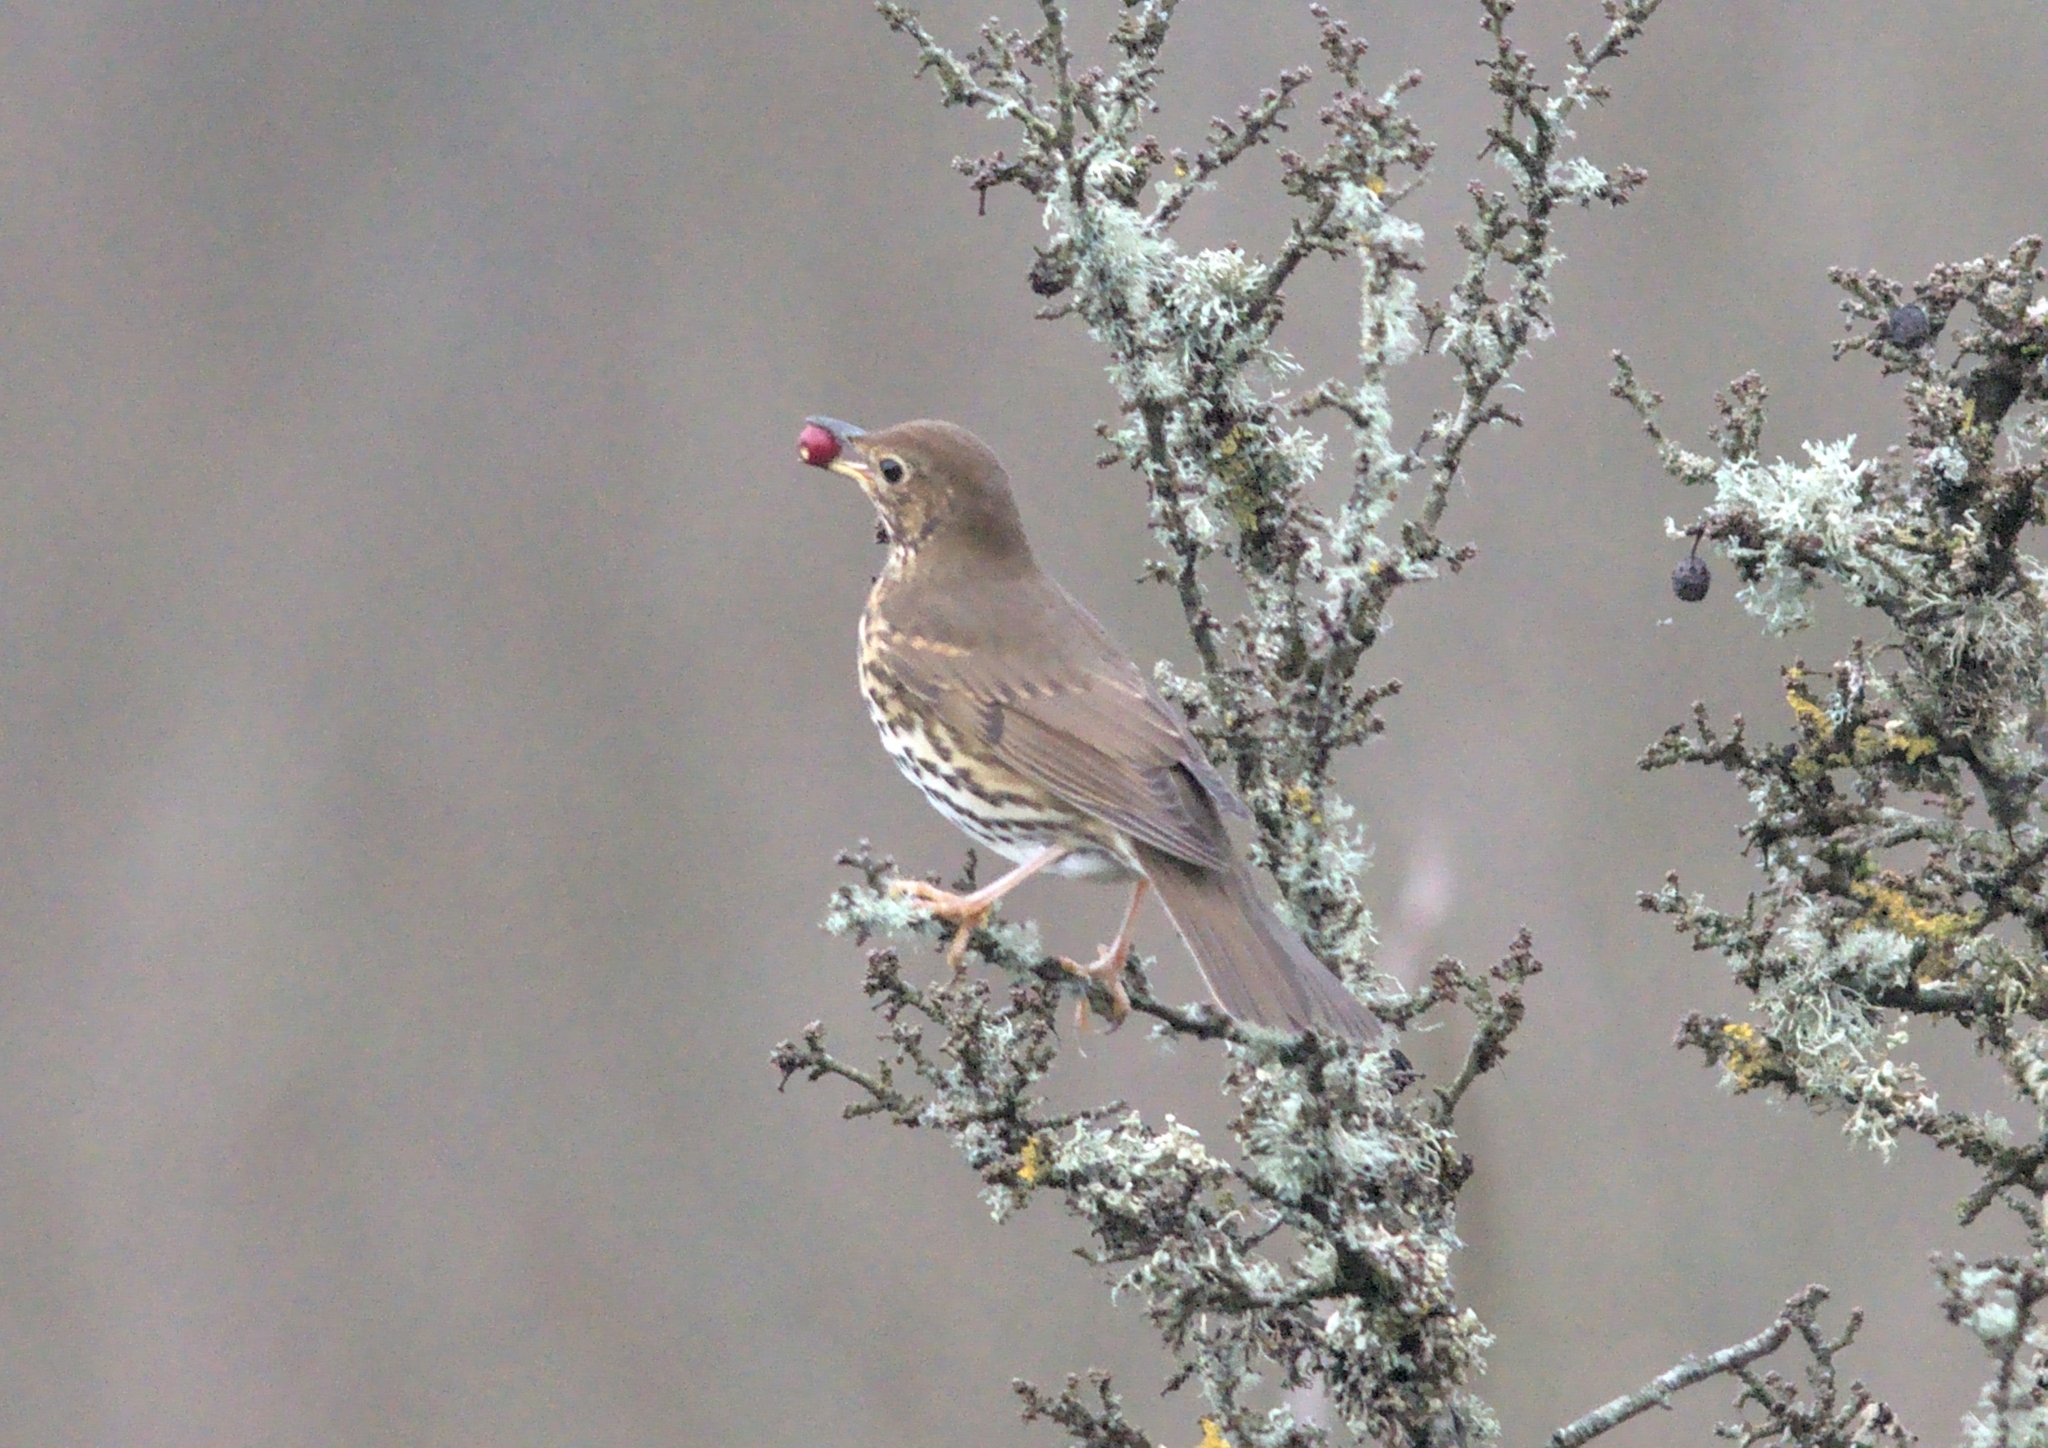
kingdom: Animalia
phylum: Chordata
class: Aves
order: Passeriformes
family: Turdidae
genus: Turdus
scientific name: Turdus philomelos
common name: Song thrush
